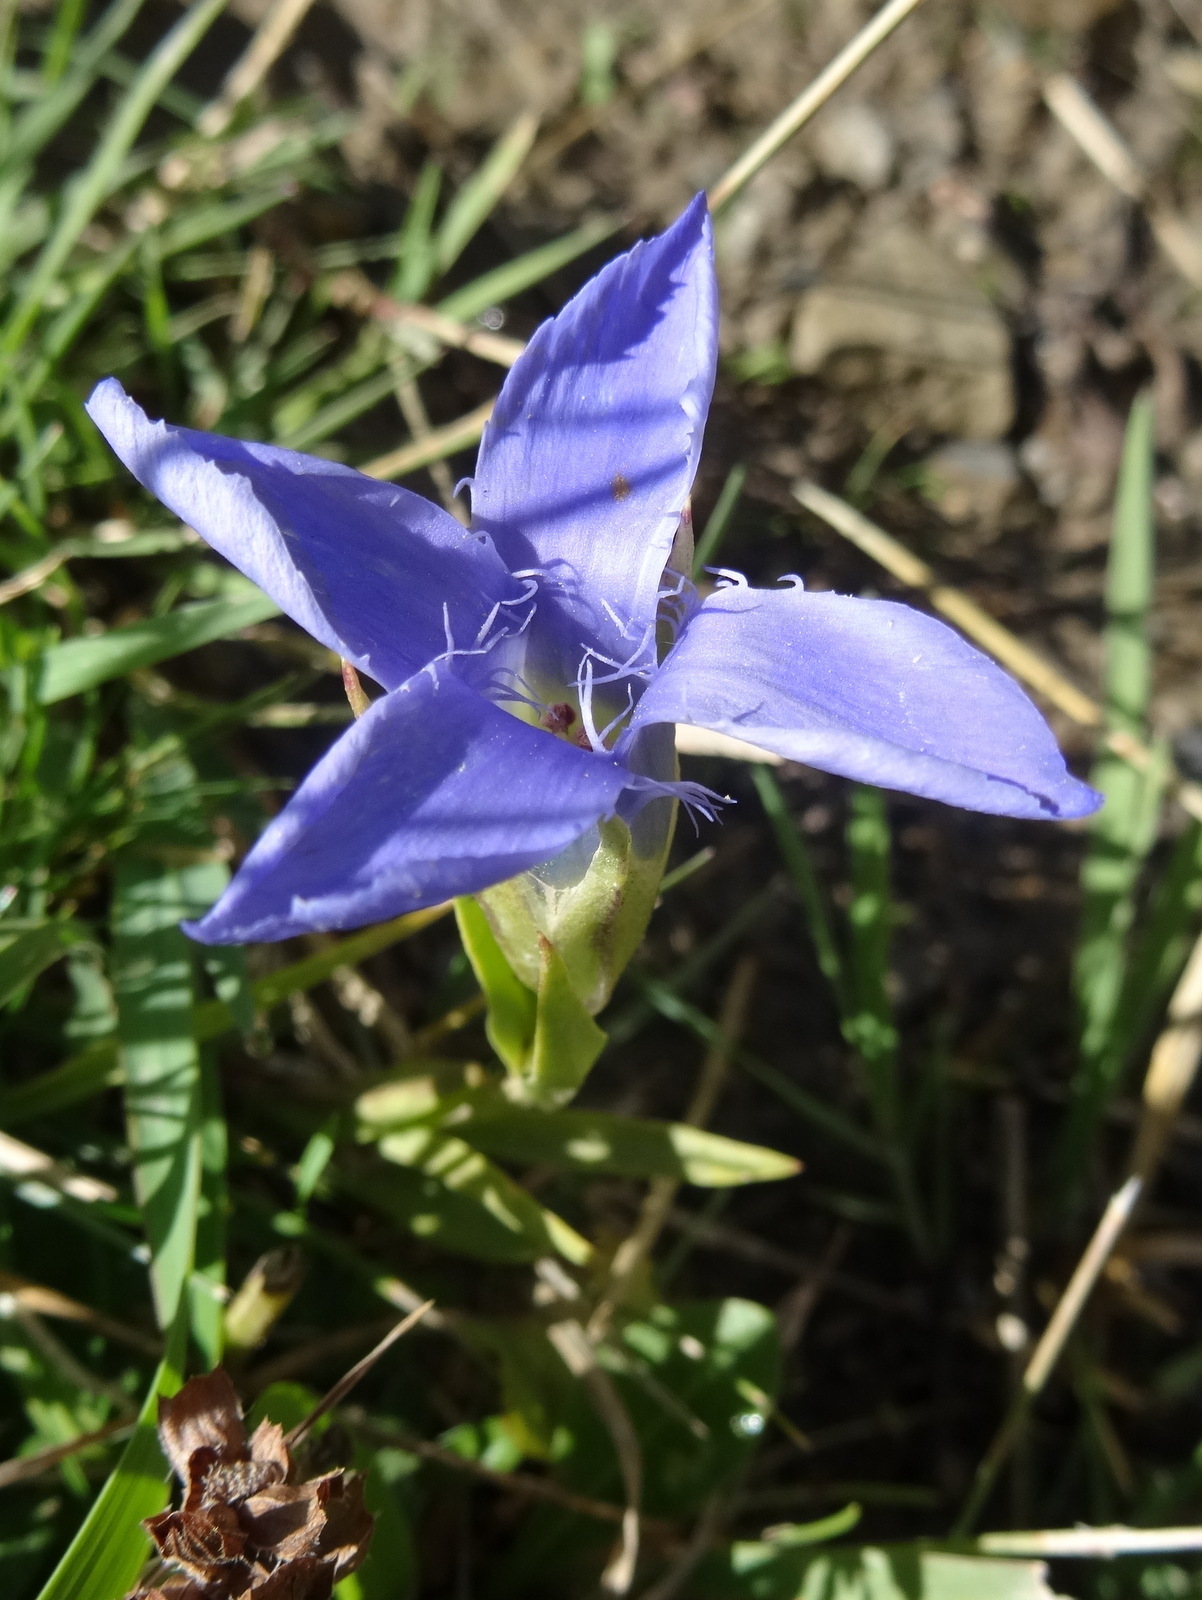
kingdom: Plantae
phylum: Tracheophyta
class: Magnoliopsida
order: Gentianales
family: Gentianaceae
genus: Gentianopsis
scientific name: Gentianopsis ciliata
